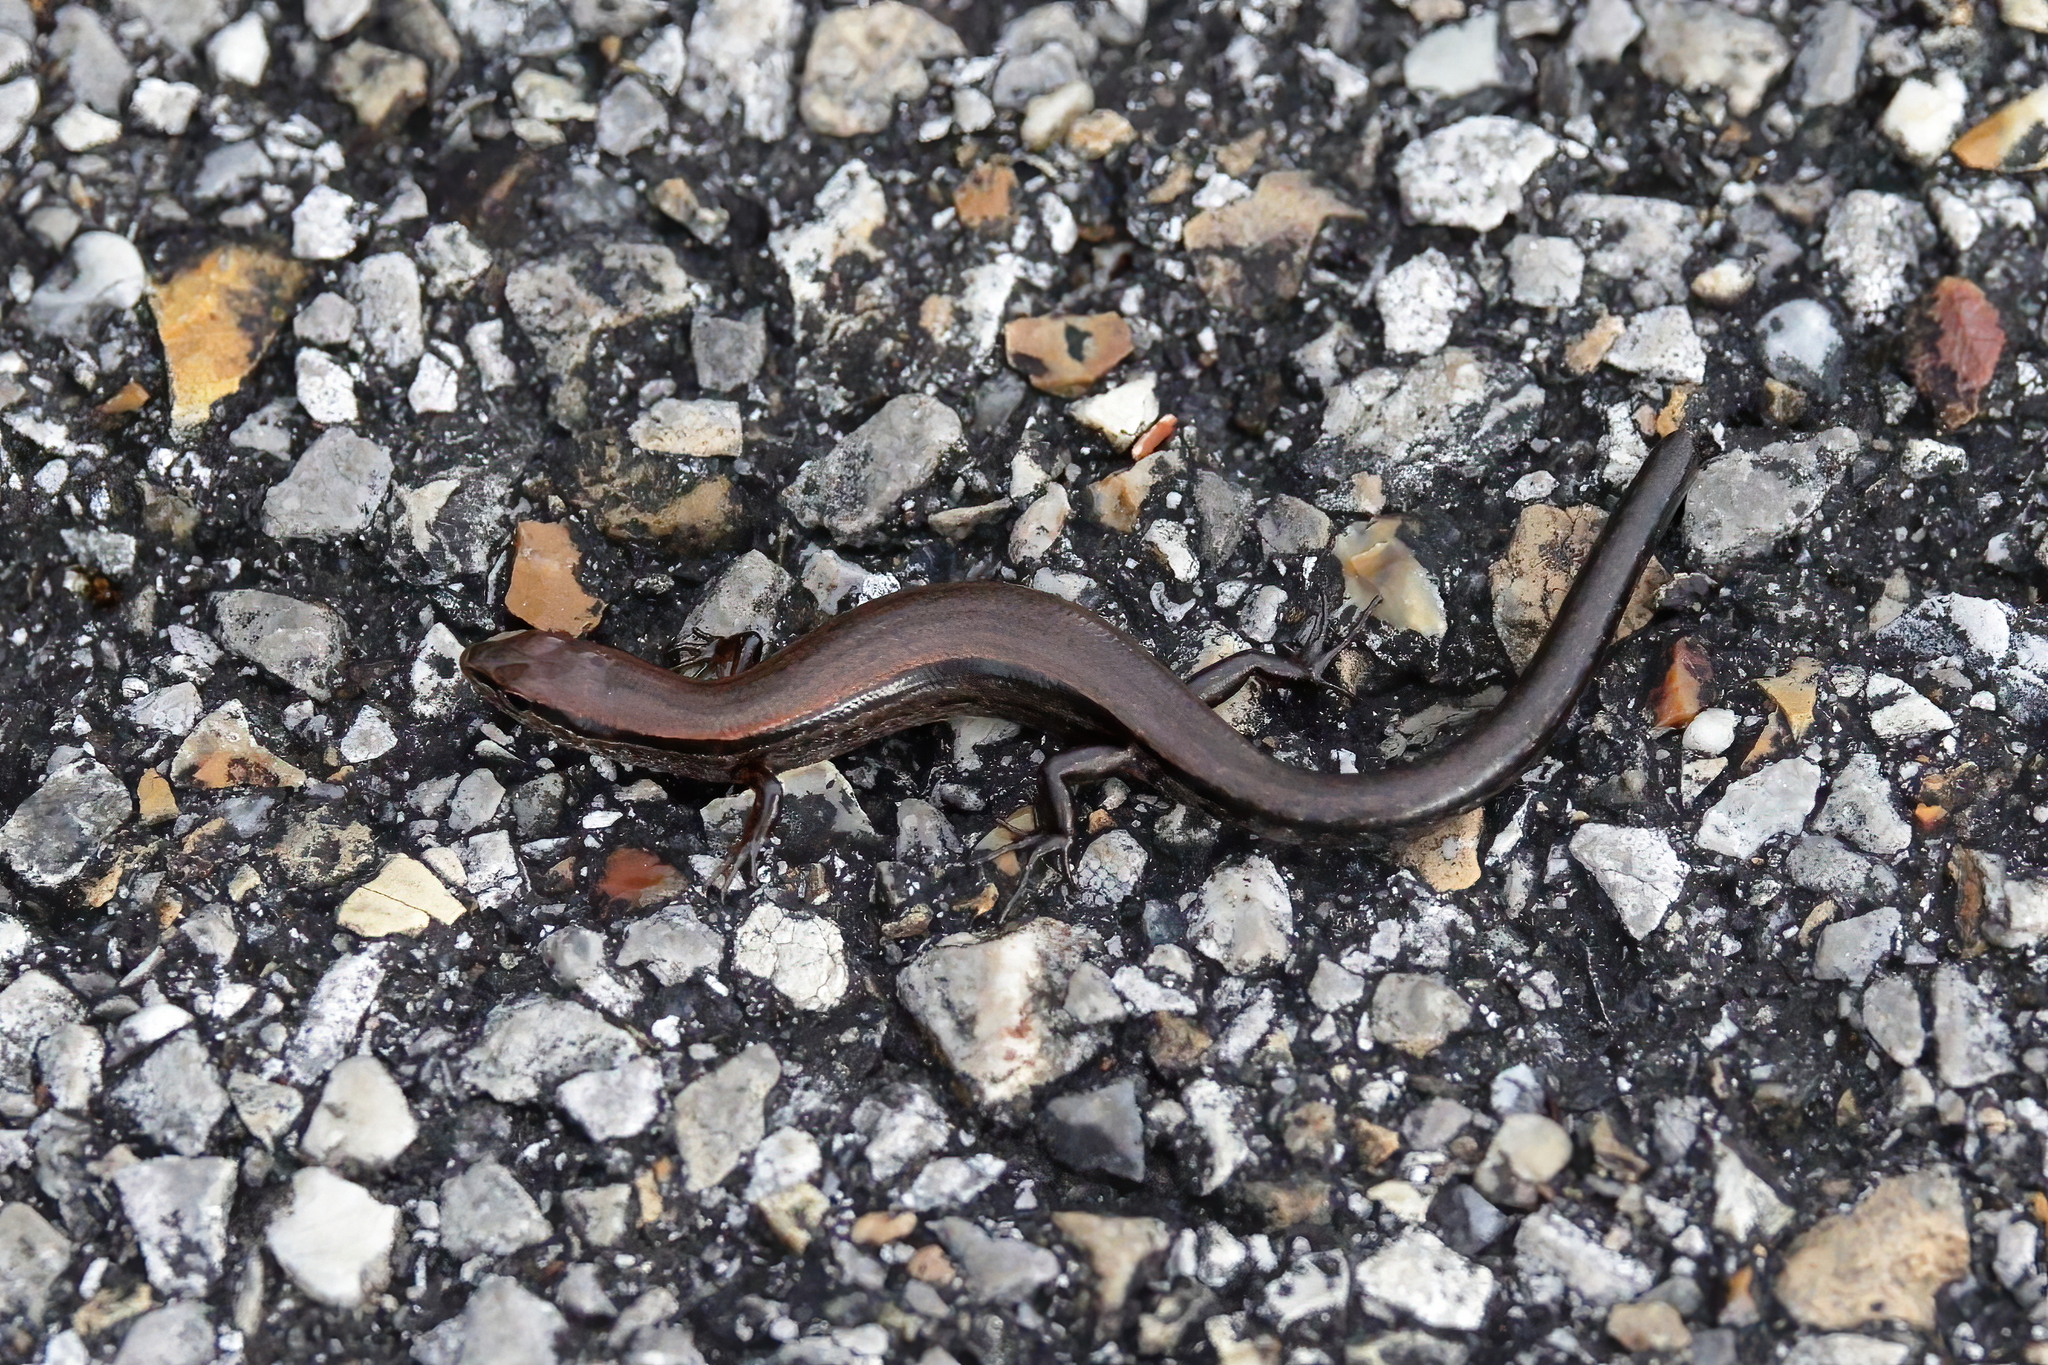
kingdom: Animalia
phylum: Chordata
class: Squamata
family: Scincidae
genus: Scincella
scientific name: Scincella lateralis
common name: Ground skink
